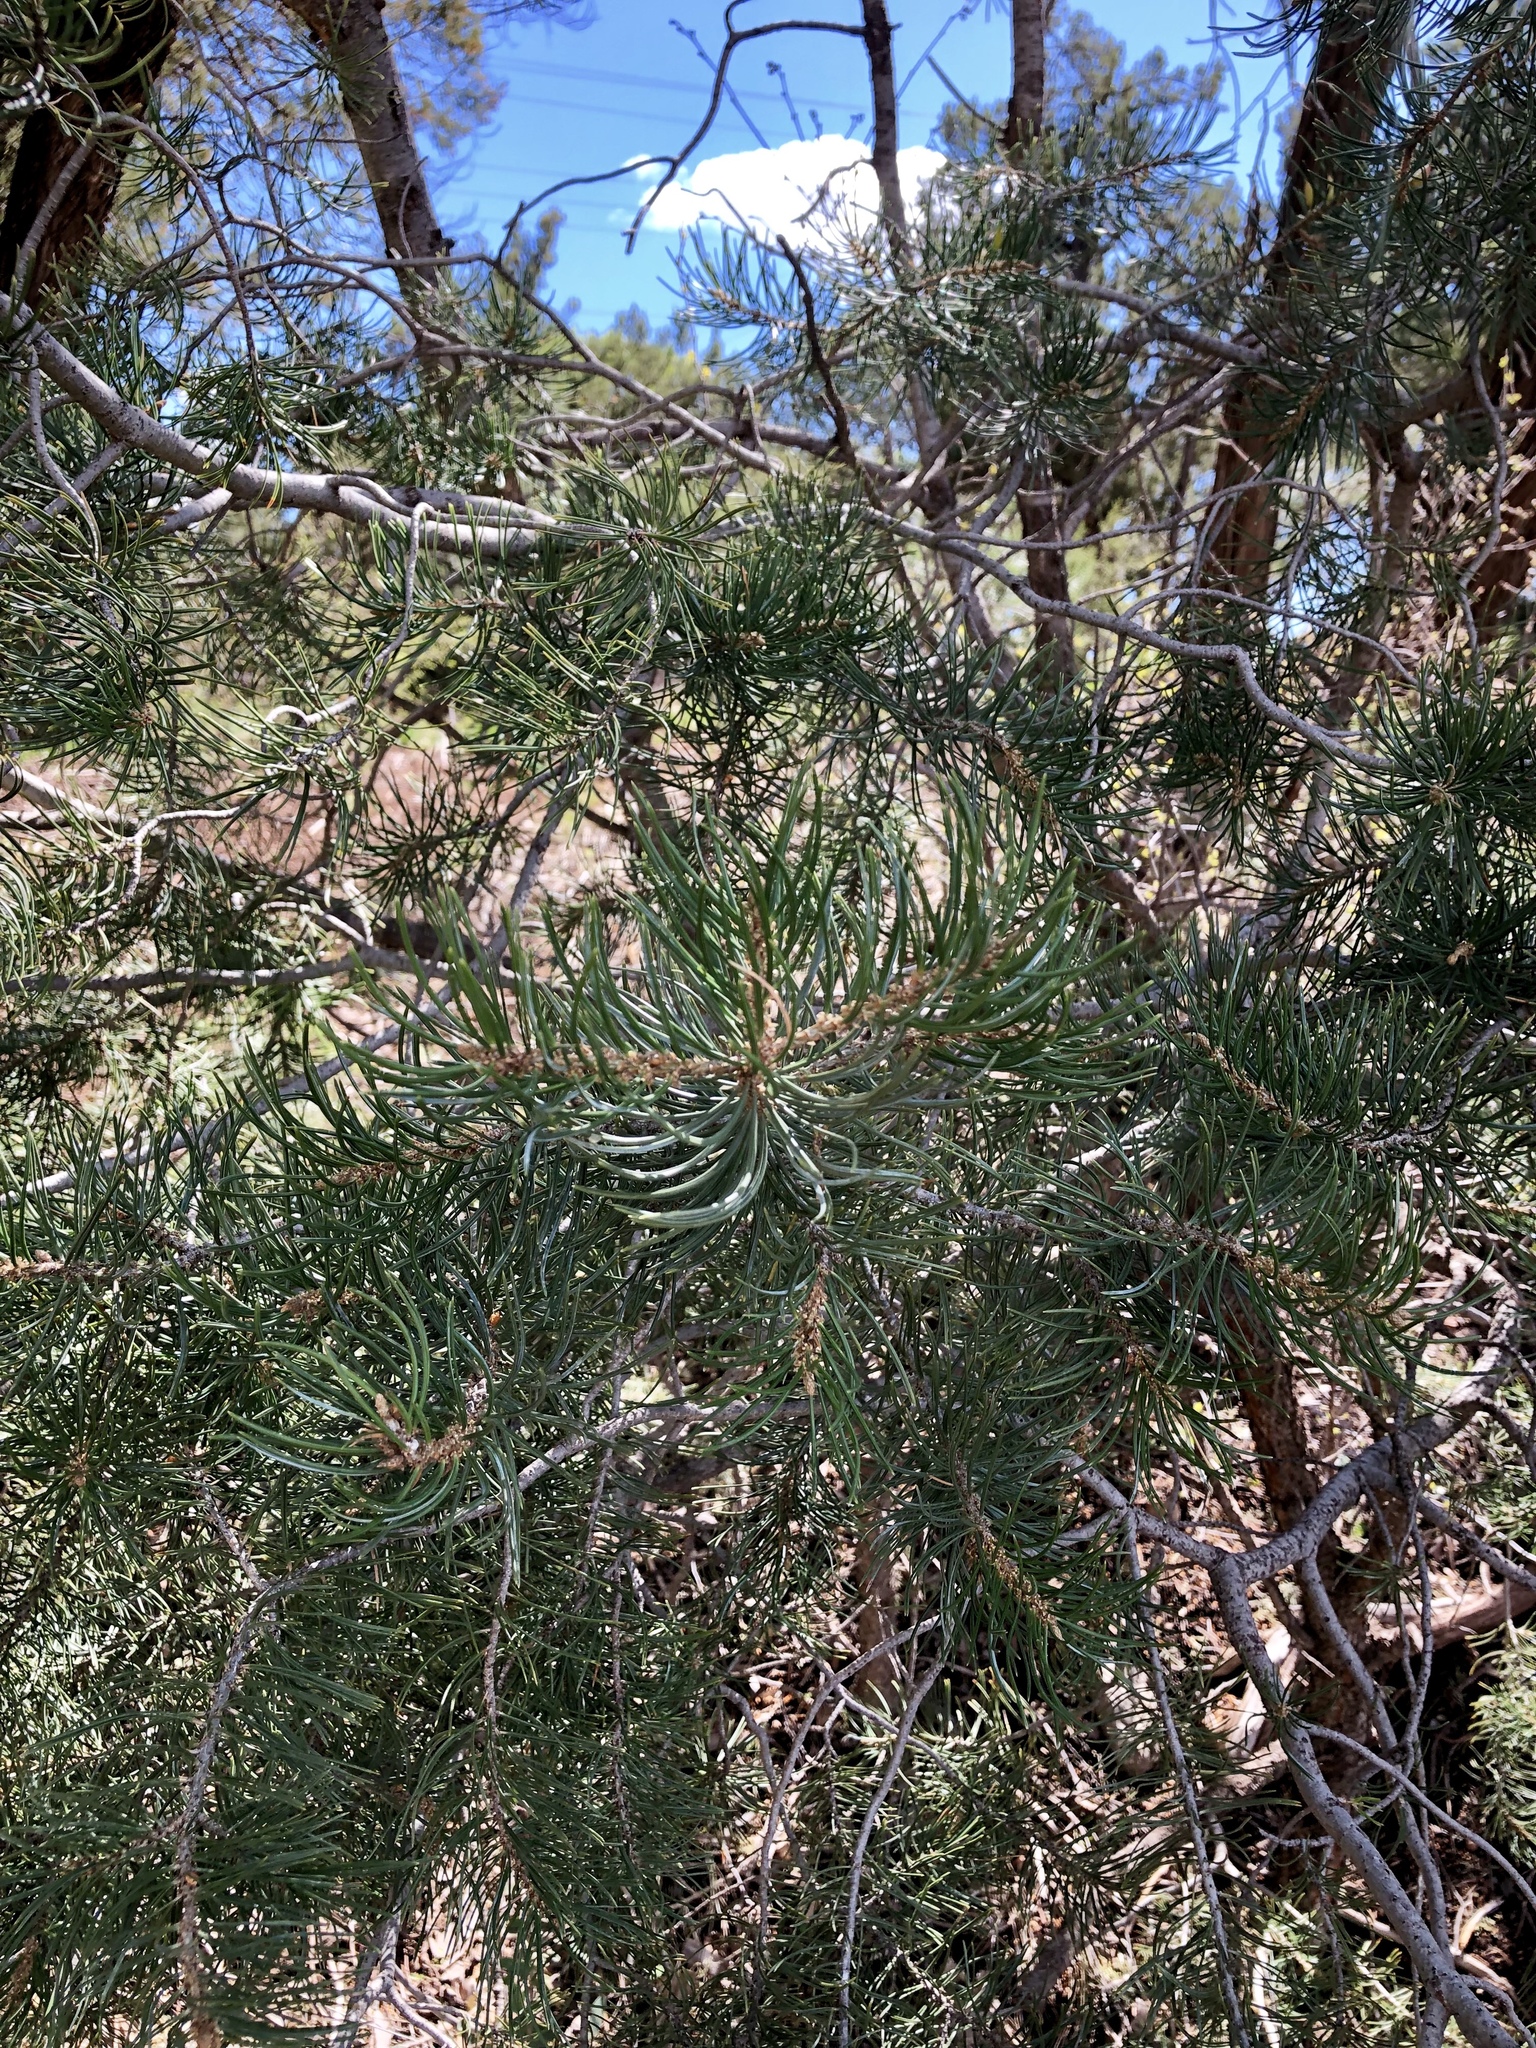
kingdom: Plantae
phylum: Tracheophyta
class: Pinopsida
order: Pinales
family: Pinaceae
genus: Pinus
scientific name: Pinus edulis
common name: Colorado pinyon
